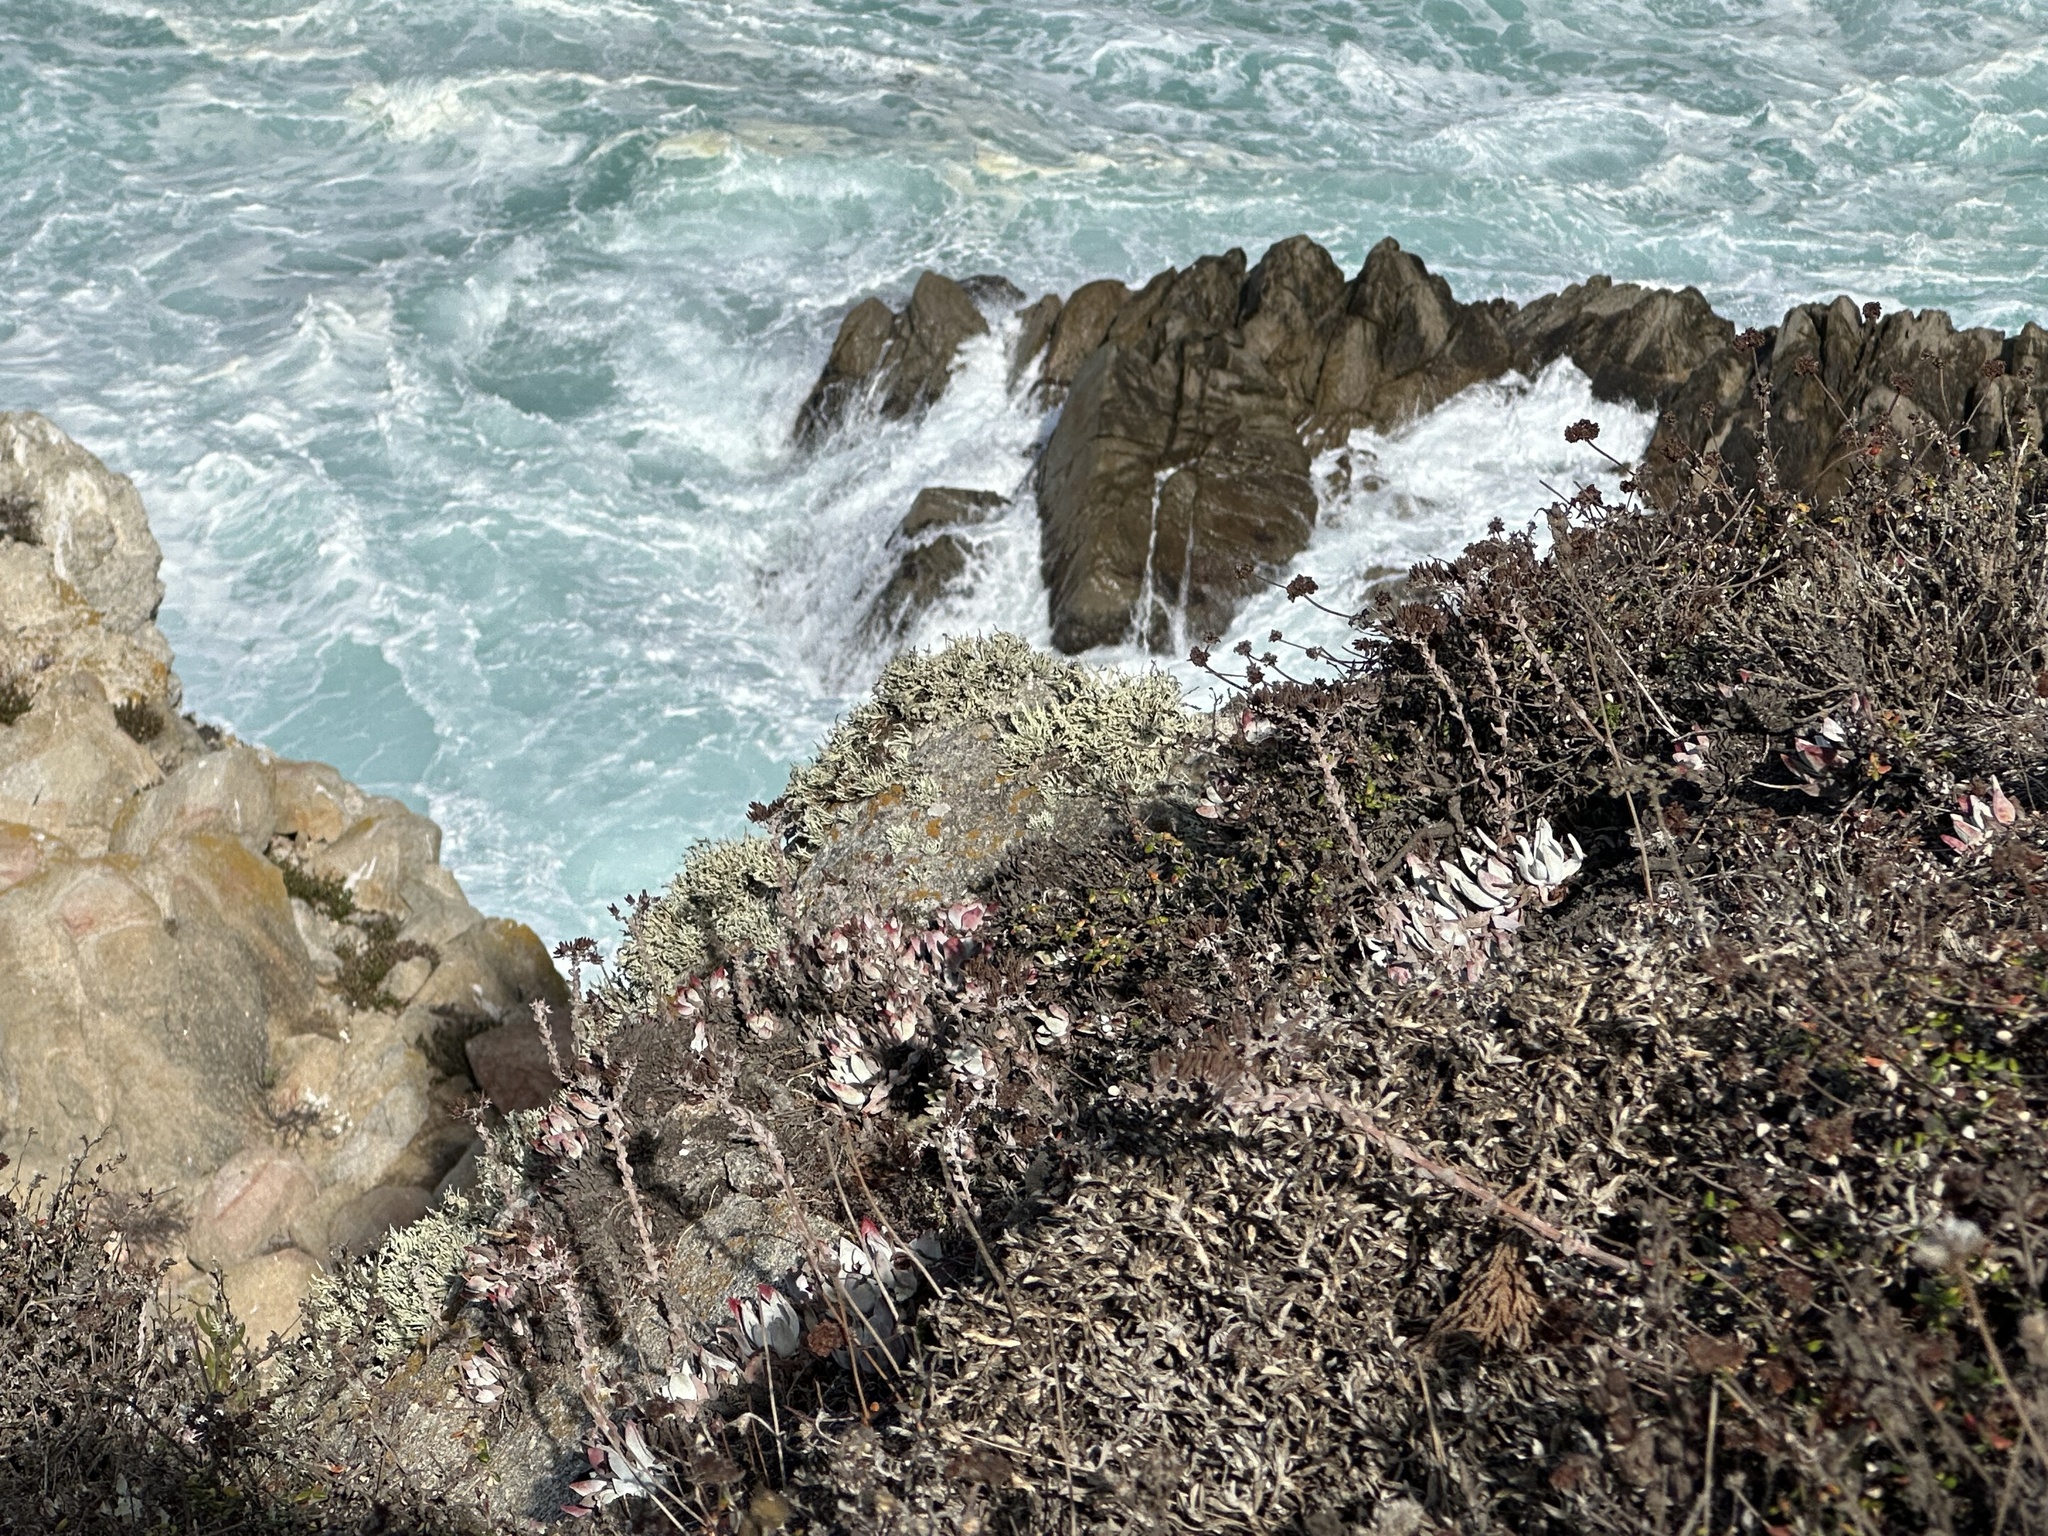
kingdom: Plantae
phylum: Tracheophyta
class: Magnoliopsida
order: Saxifragales
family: Crassulaceae
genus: Dudleya
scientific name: Dudleya farinosa
